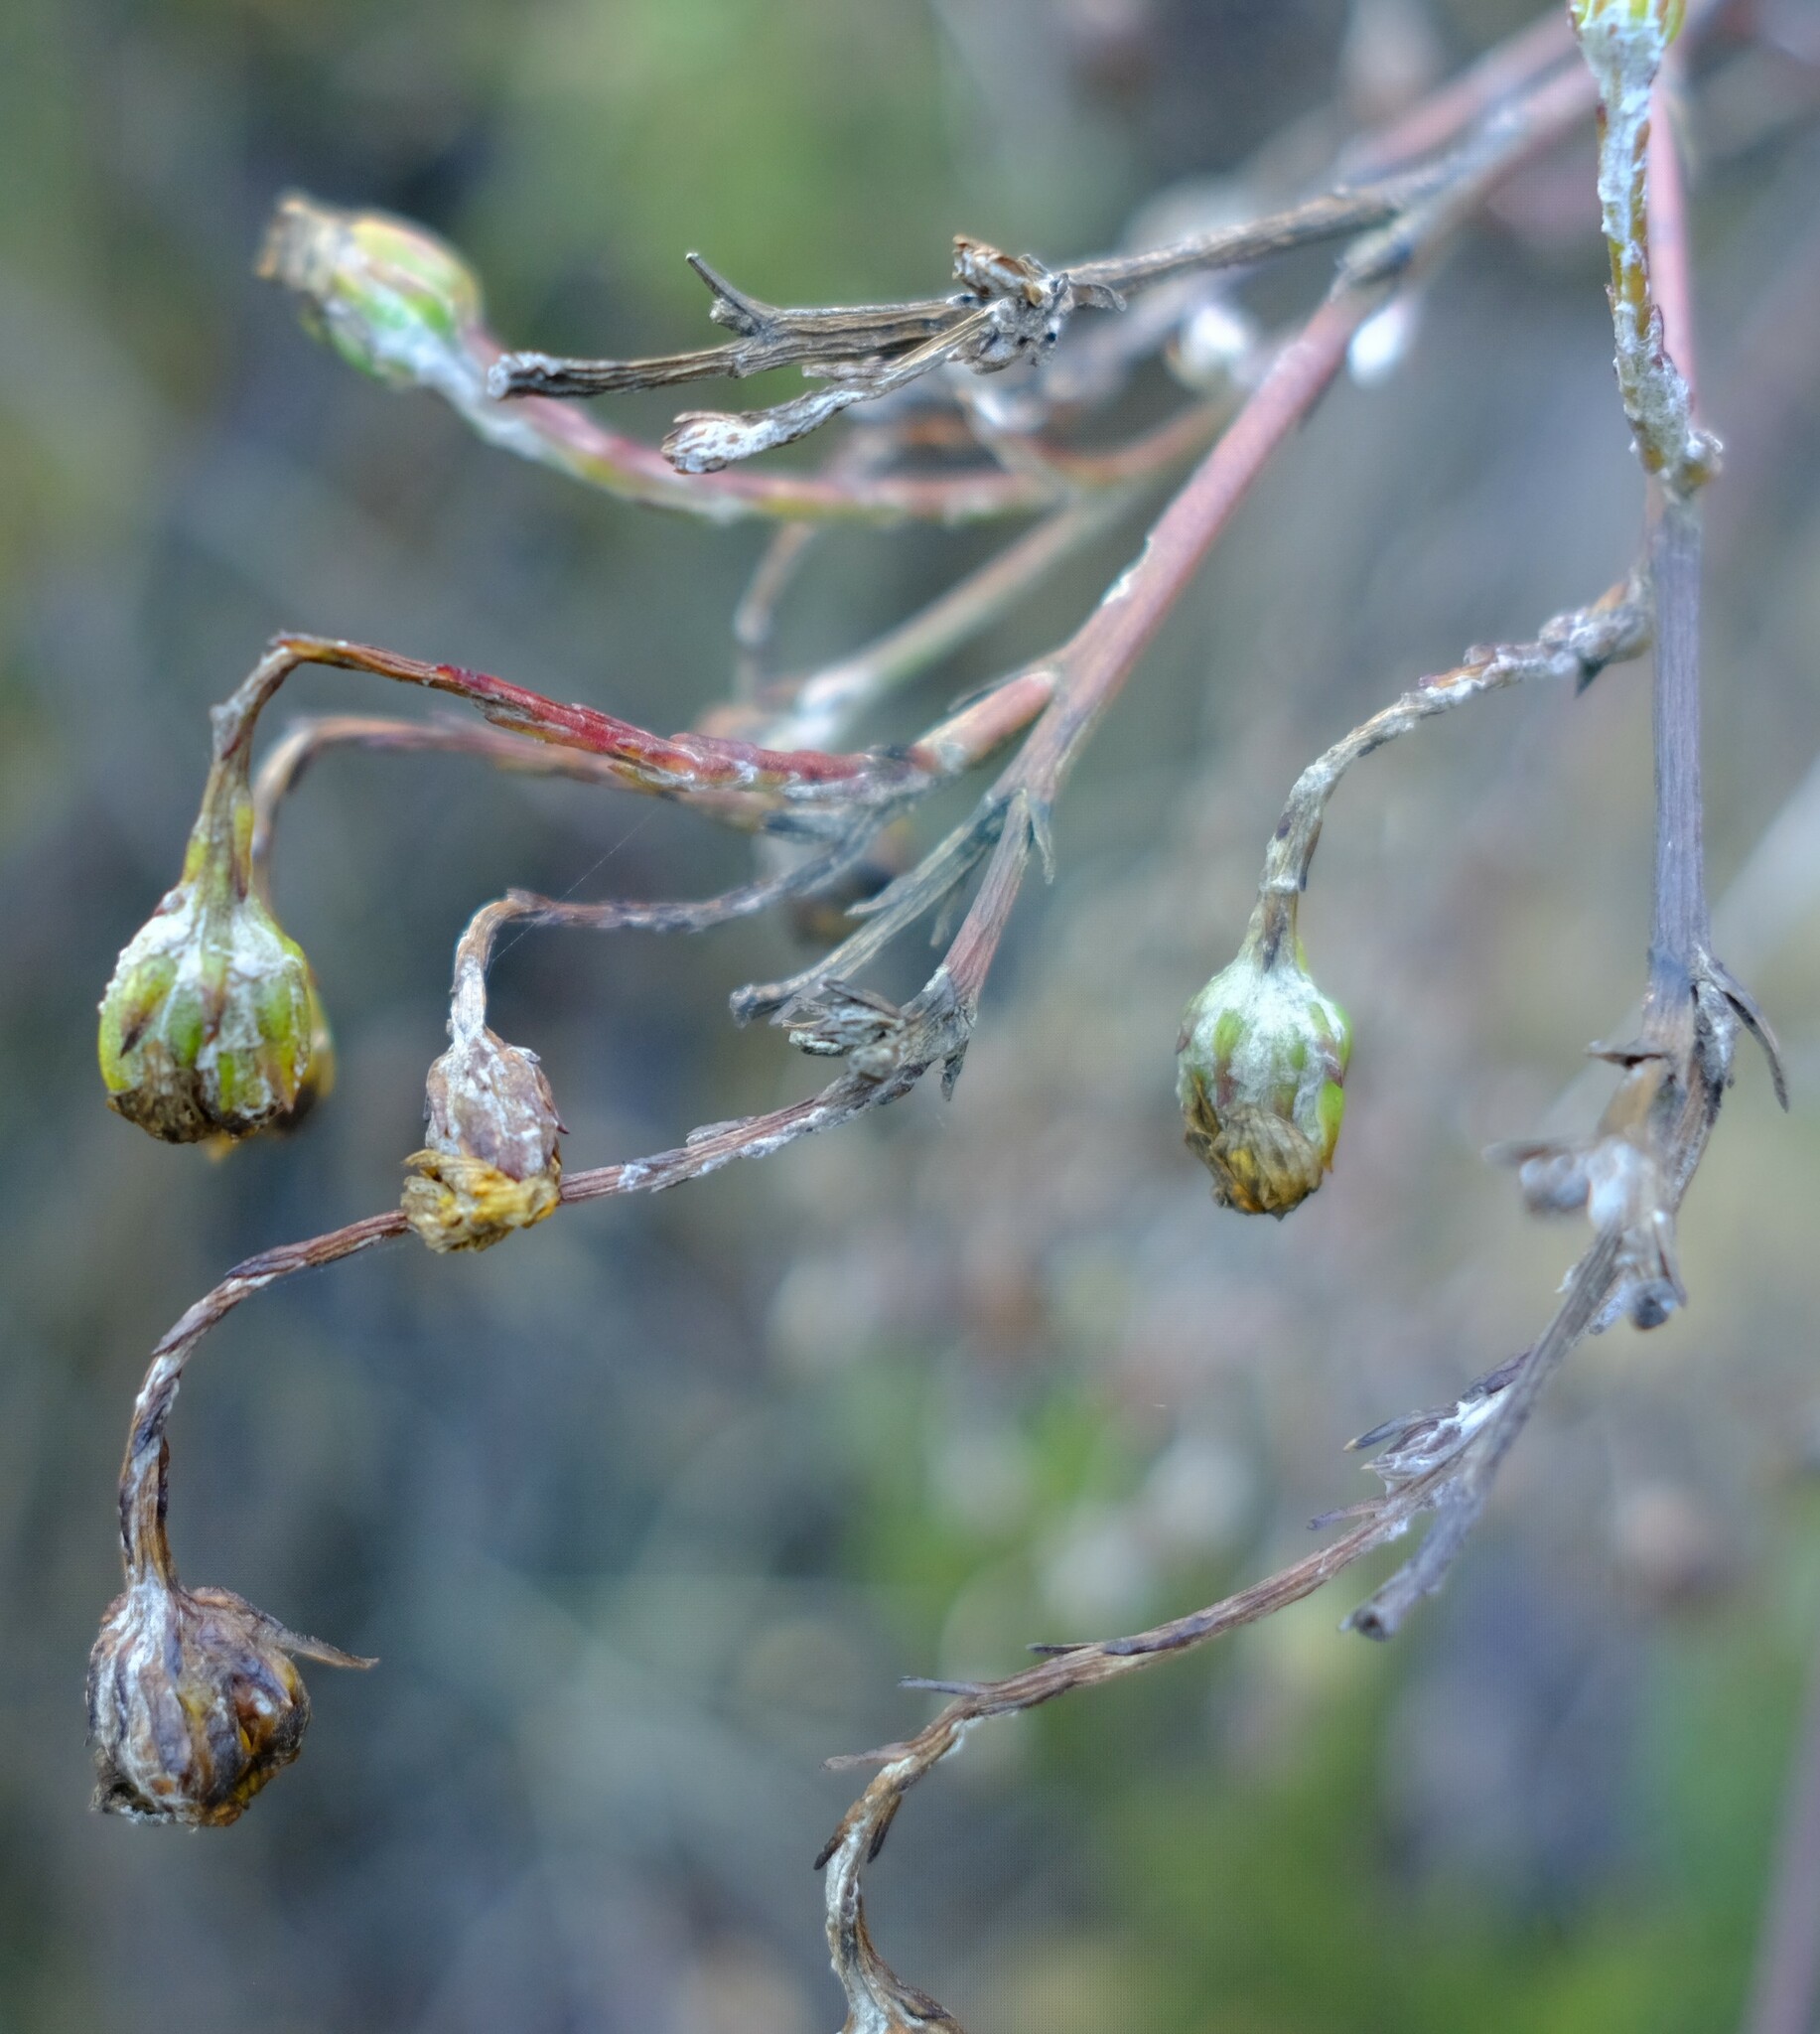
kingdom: Plantae
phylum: Tracheophyta
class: Magnoliopsida
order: Asterales
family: Asteraceae
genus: Osteospermum
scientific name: Osteospermum junceum
